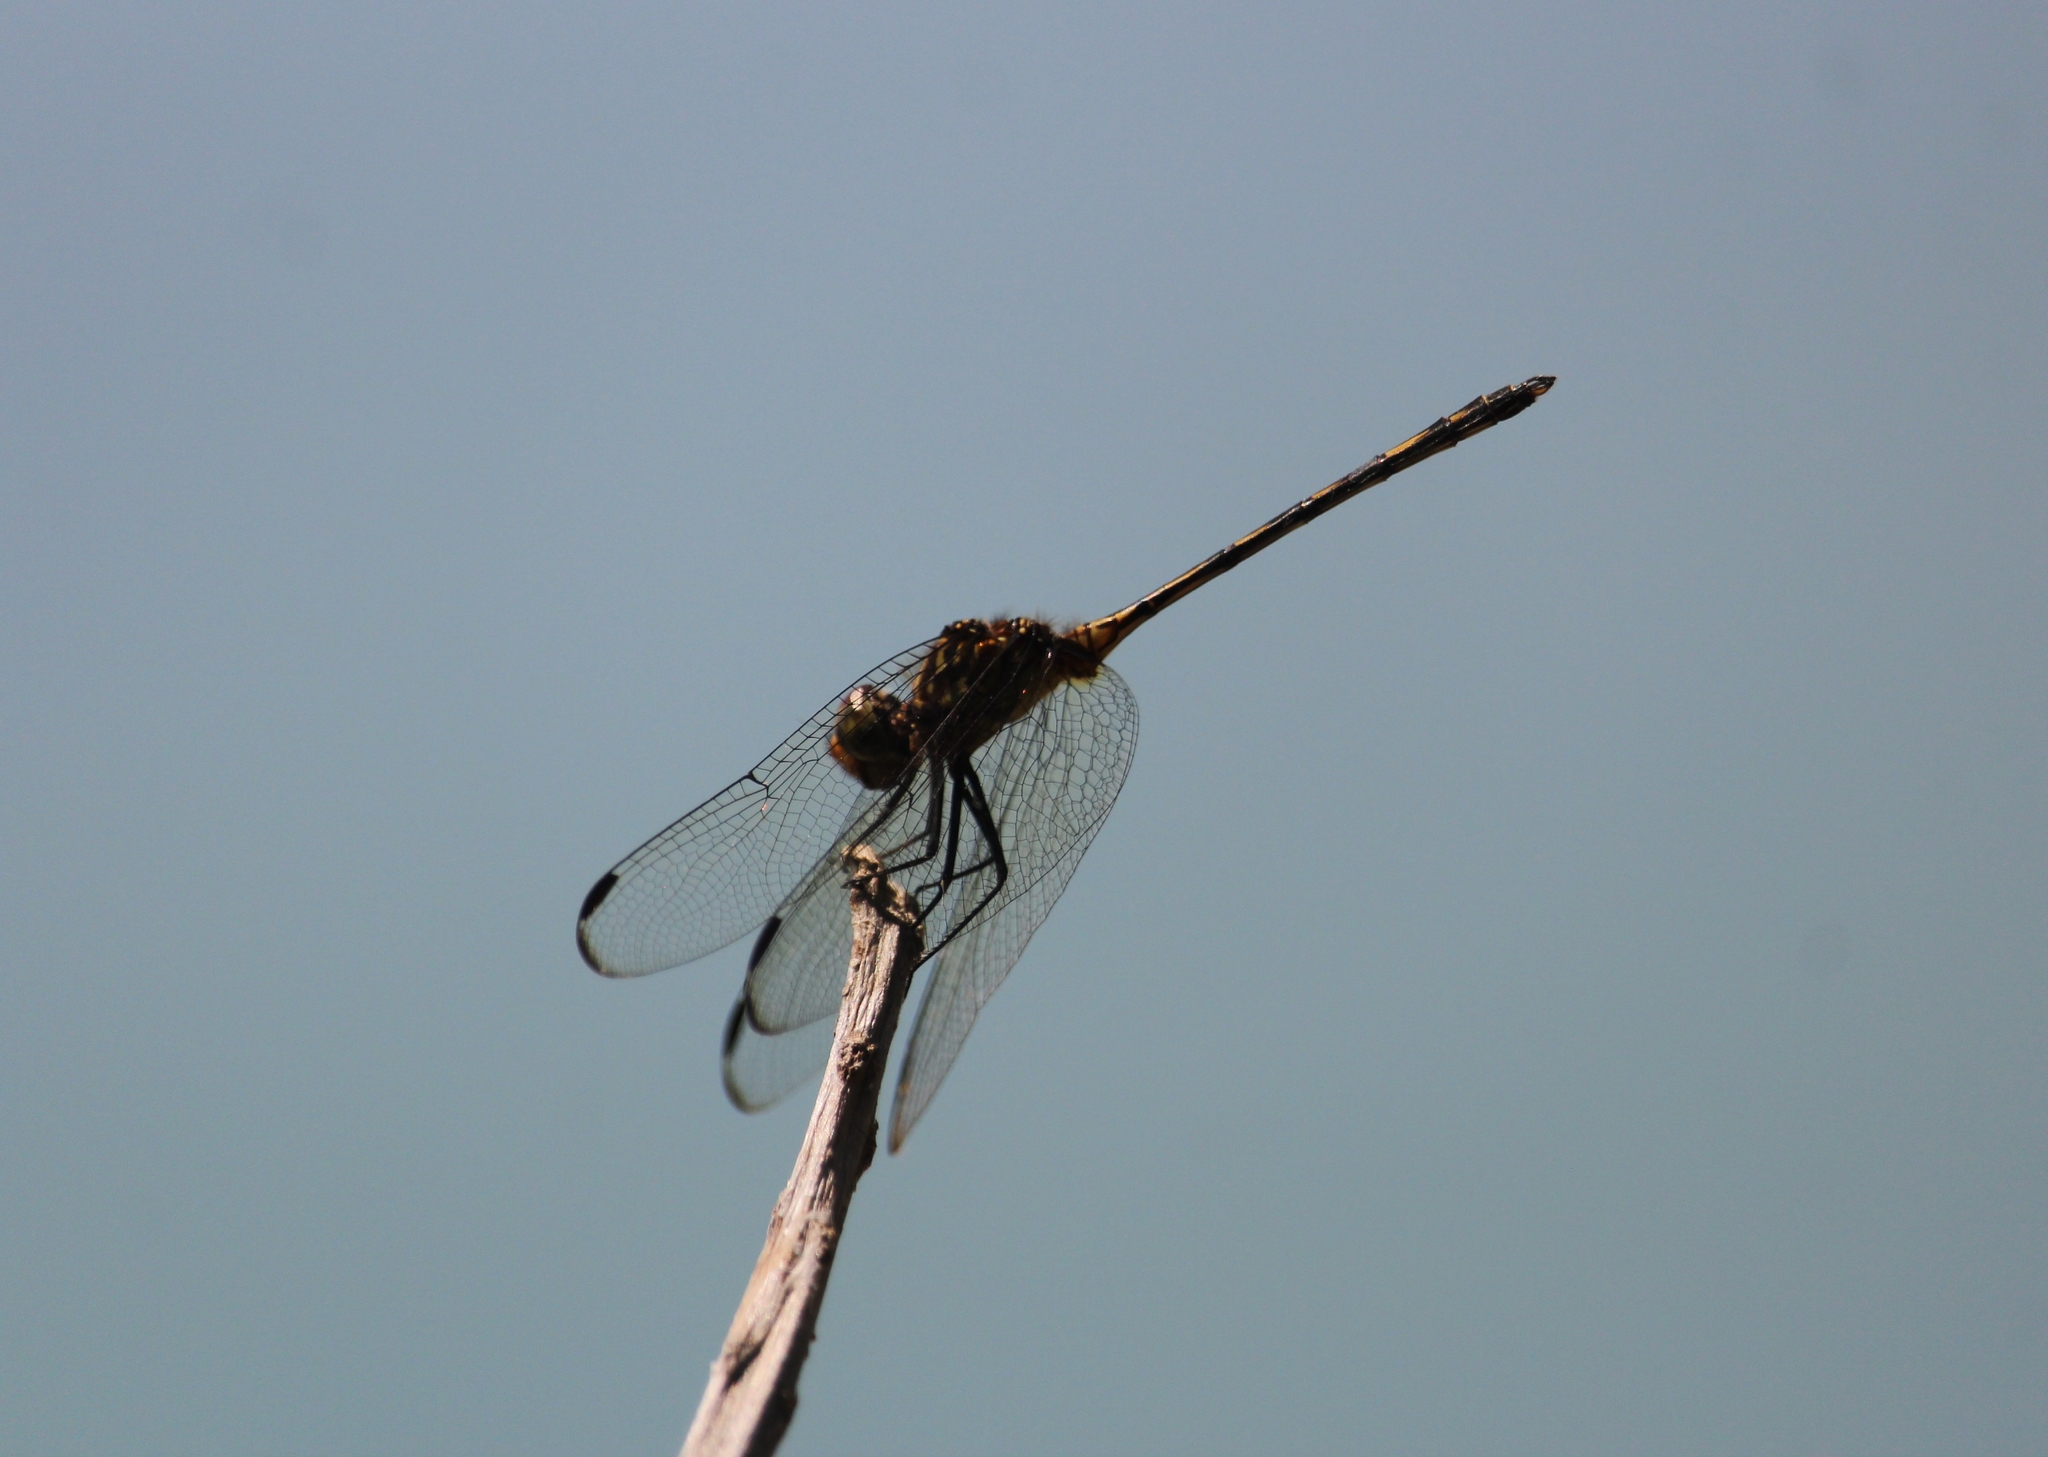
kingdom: Animalia
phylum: Arthropoda
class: Insecta
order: Odonata
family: Libellulidae
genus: Dythemis
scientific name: Dythemis sterilis
